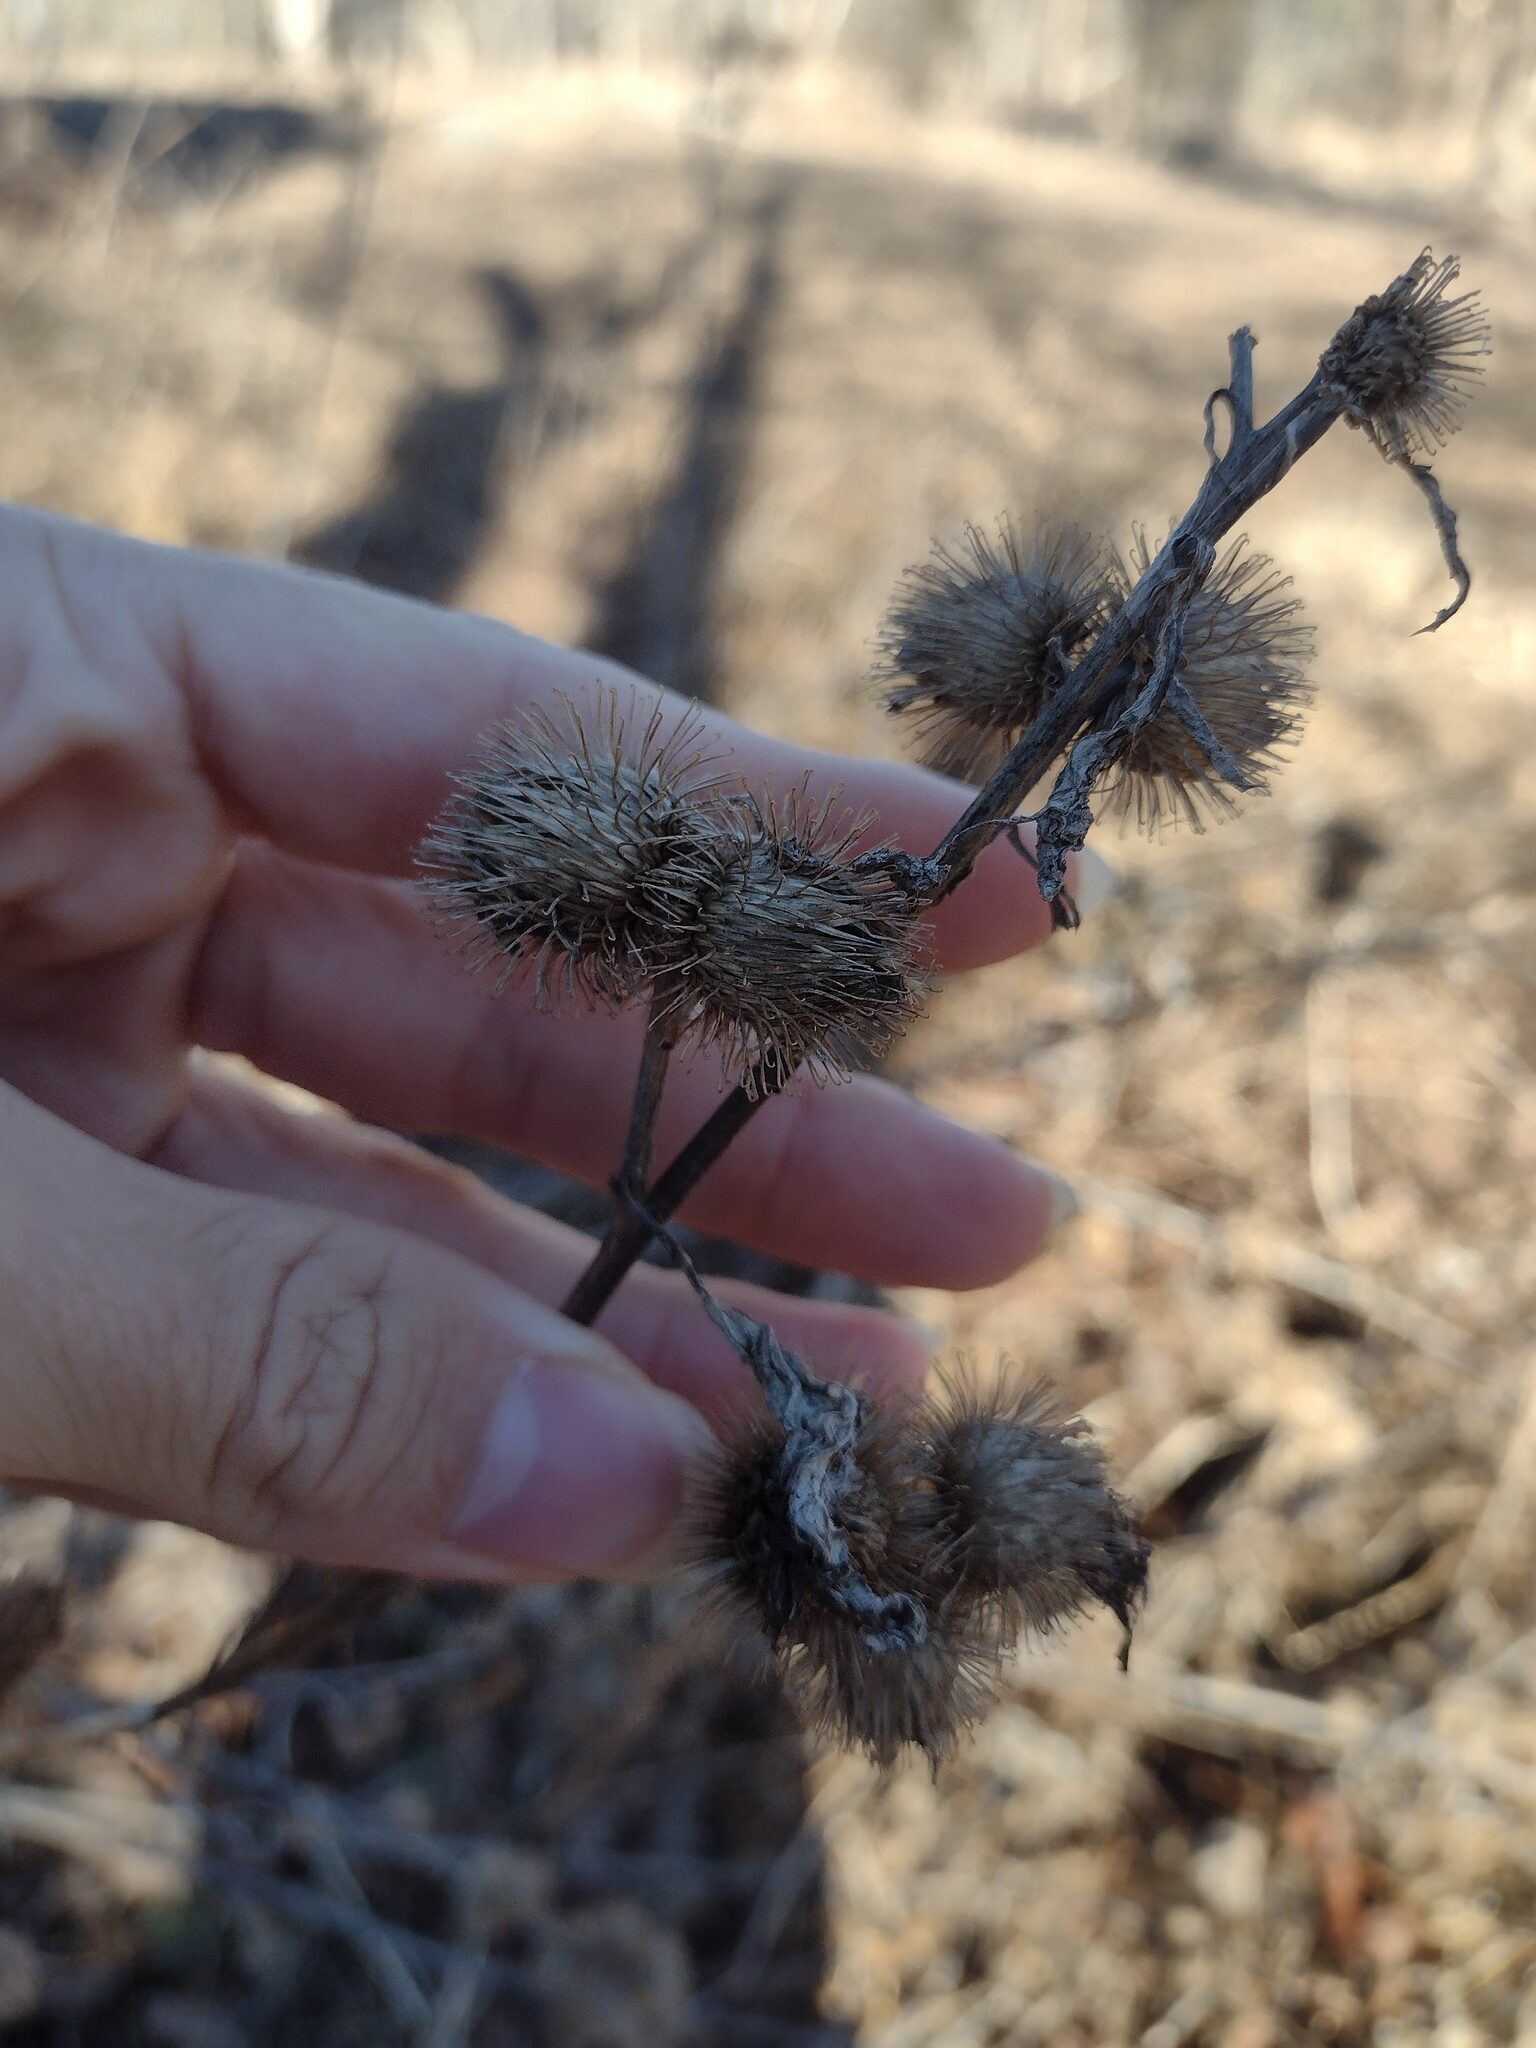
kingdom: Plantae
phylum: Tracheophyta
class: Magnoliopsida
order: Asterales
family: Asteraceae
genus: Arctium
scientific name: Arctium minus
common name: Lesser burdock
